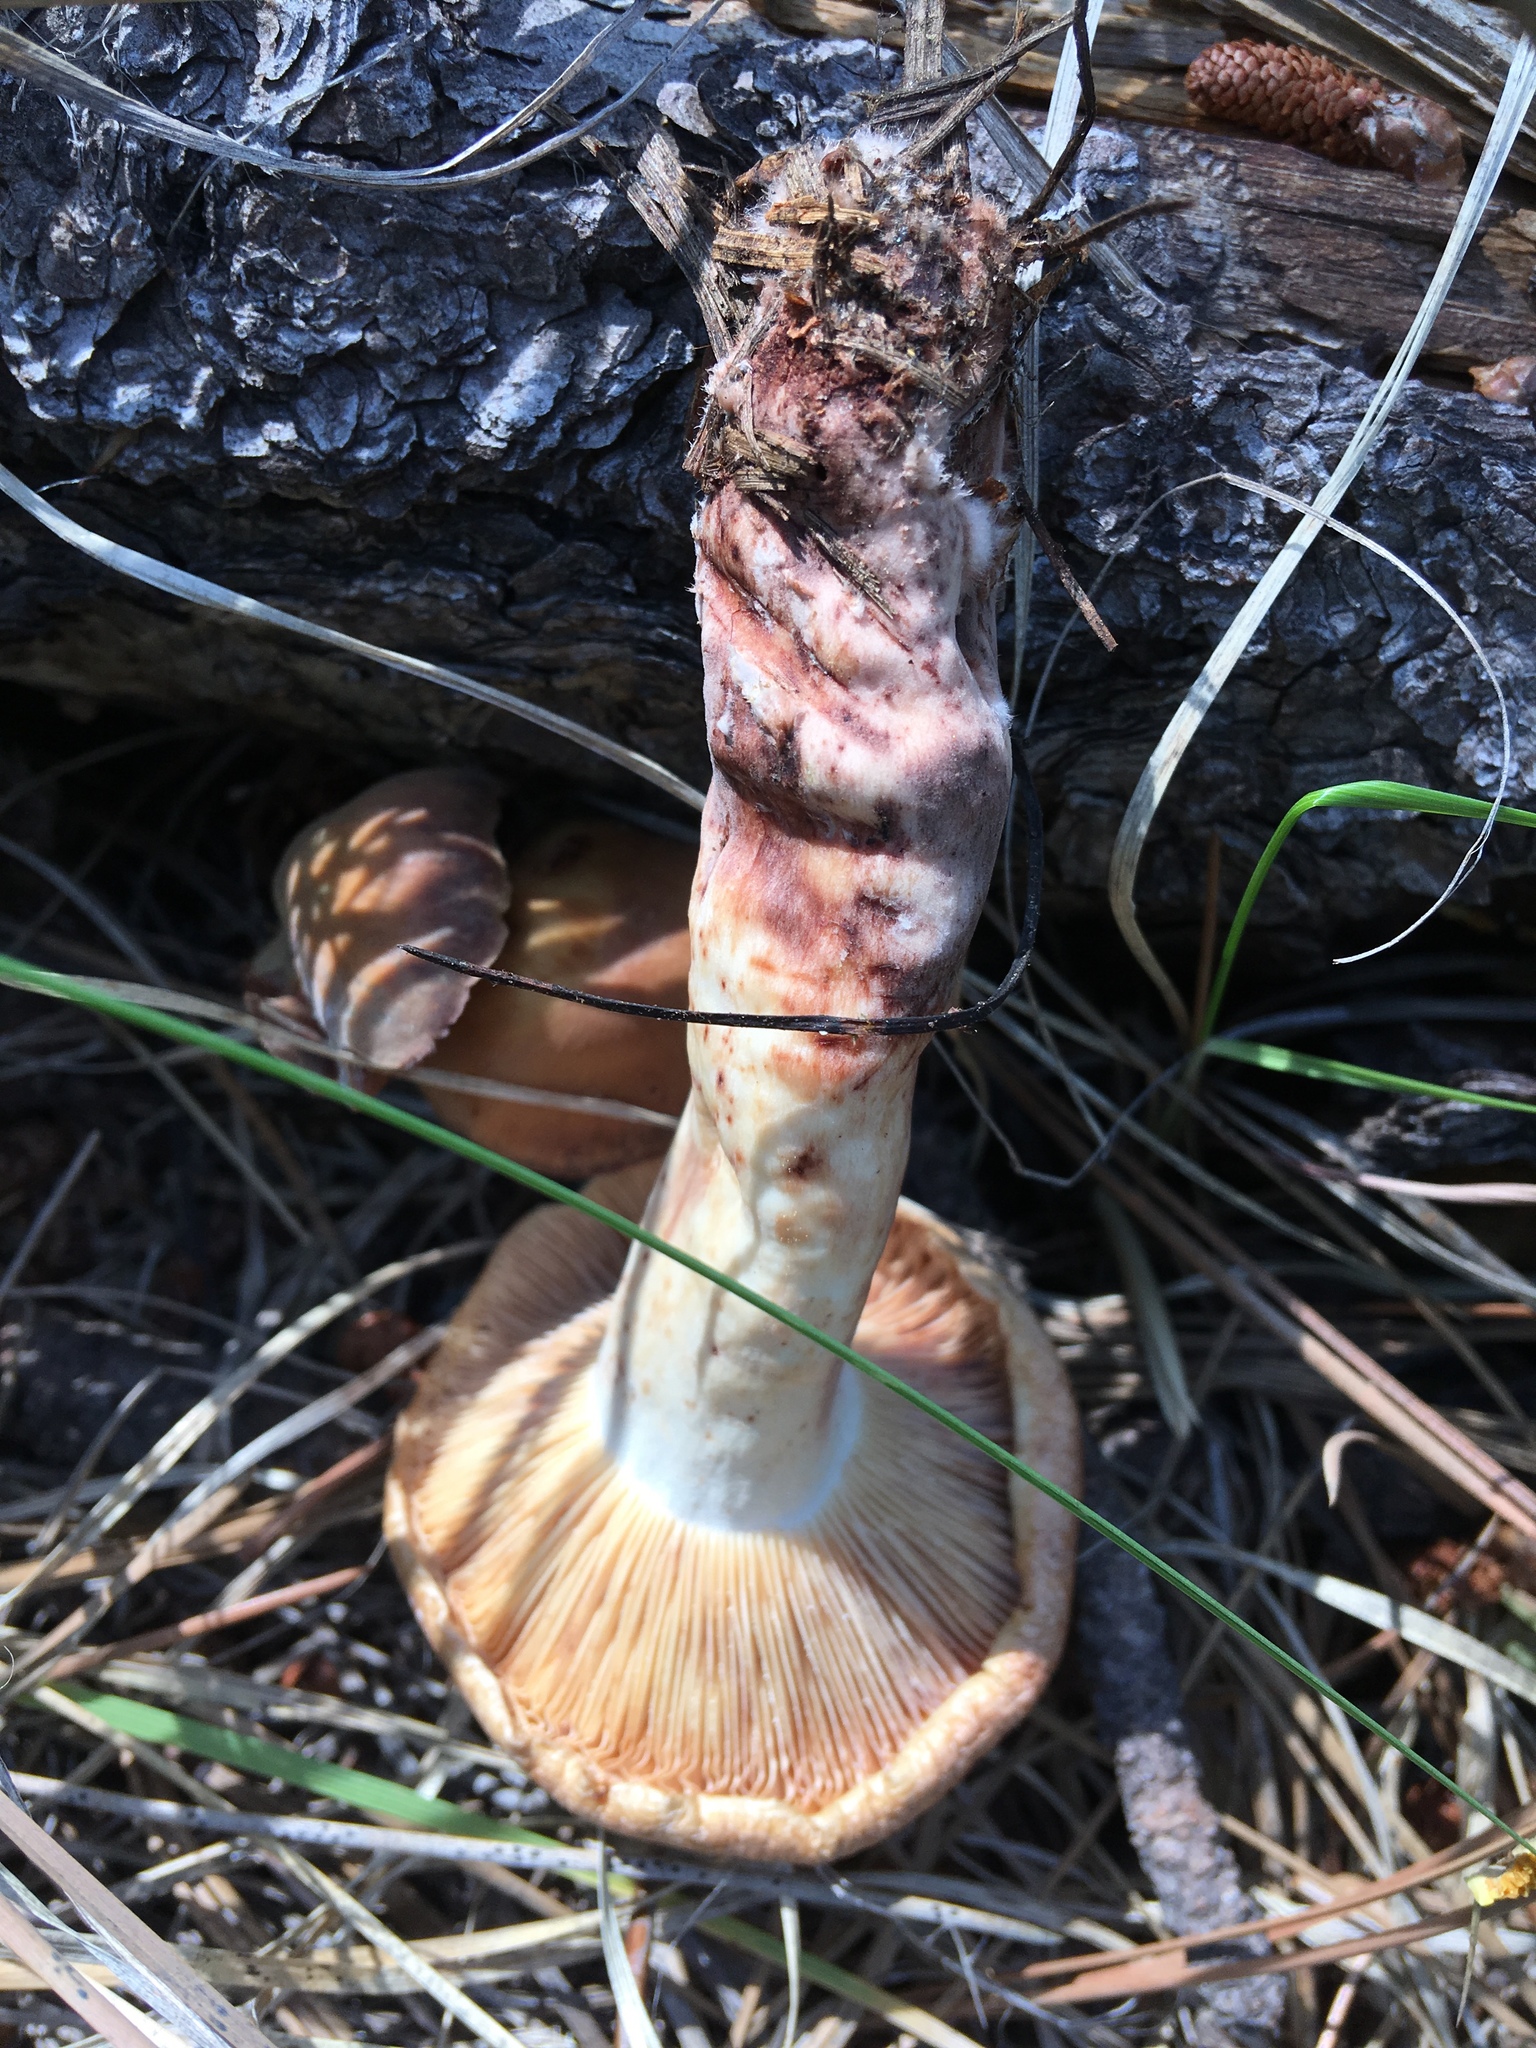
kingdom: Fungi
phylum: Basidiomycota
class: Agaricomycetes
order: Russulales
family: Russulaceae
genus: Lactarius
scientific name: Lactarius vinaceorufescens
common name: Yellow-latex milkcap
